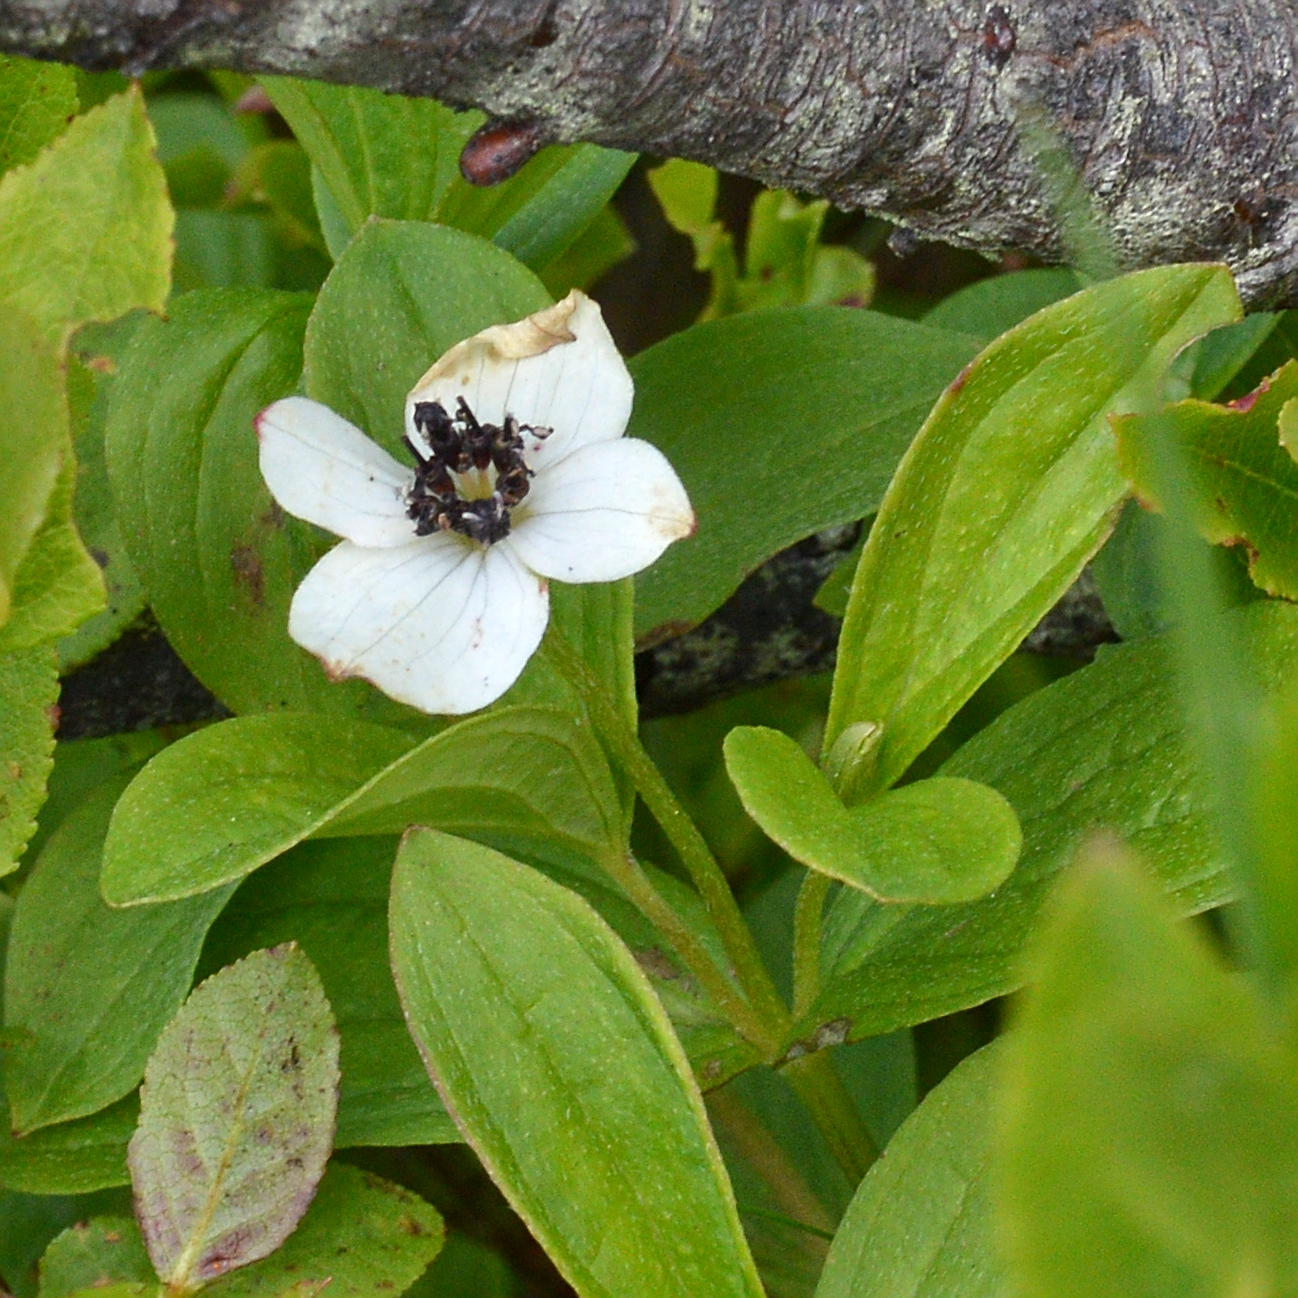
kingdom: Plantae
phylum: Tracheophyta
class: Magnoliopsida
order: Cornales
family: Cornaceae
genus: Cornus
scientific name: Cornus suecica
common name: Dwarf cornel
